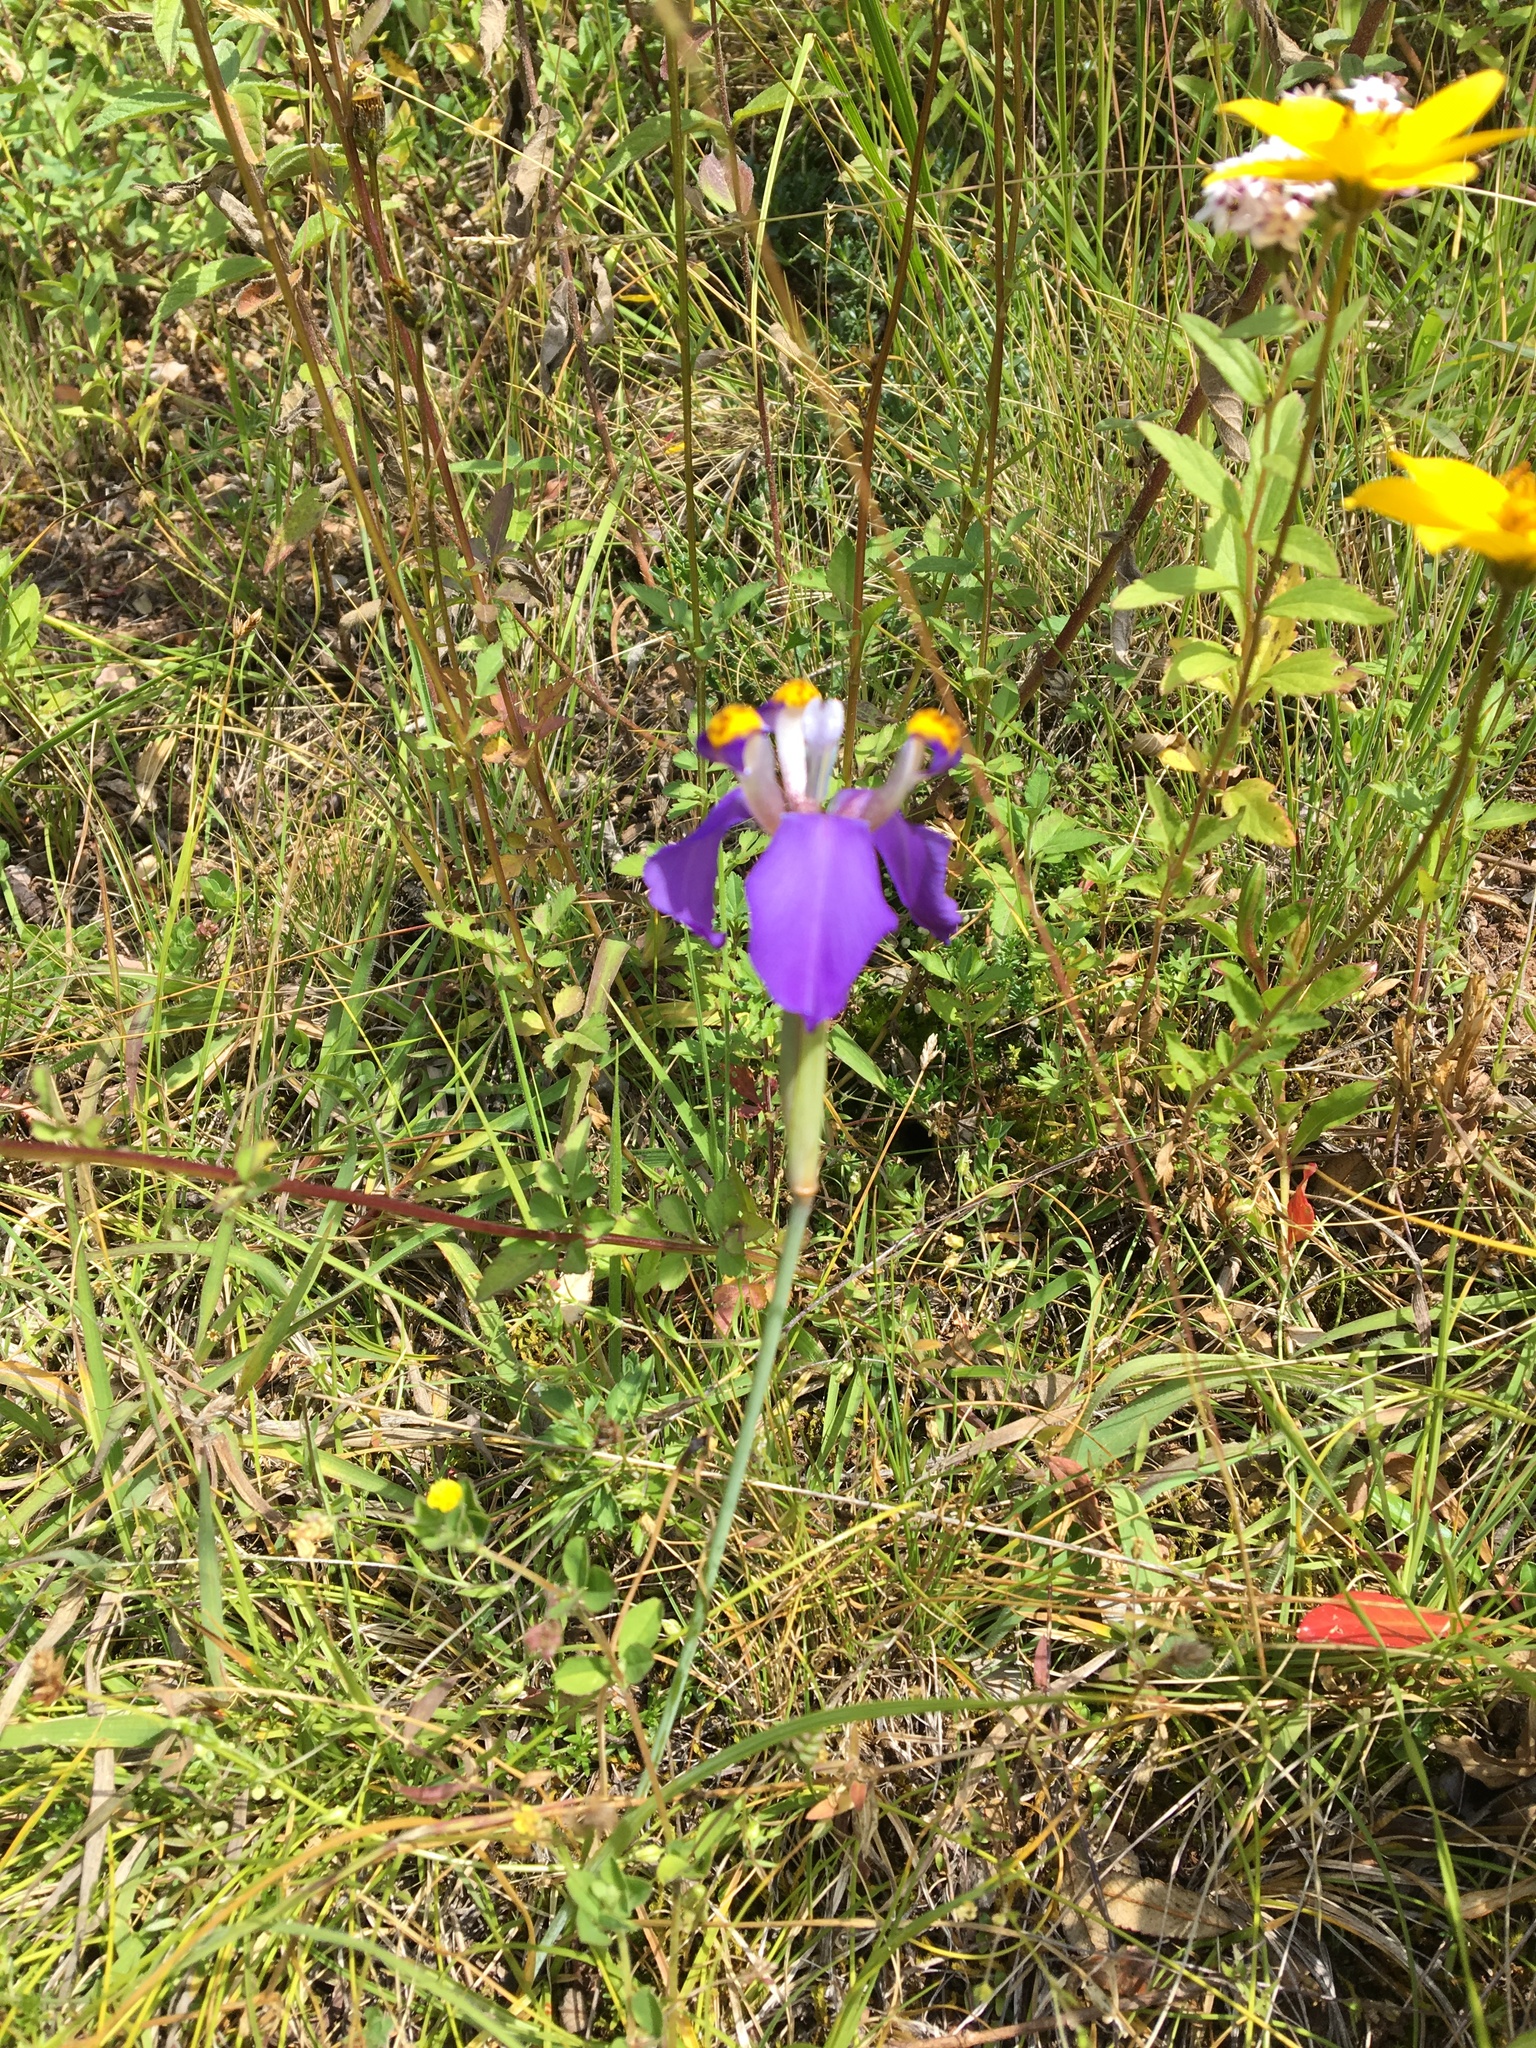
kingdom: Plantae
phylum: Tracheophyta
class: Liliopsida
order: Asparagales
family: Iridaceae
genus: Hesperoxiphion
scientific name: Hesperoxiphion herrerae
